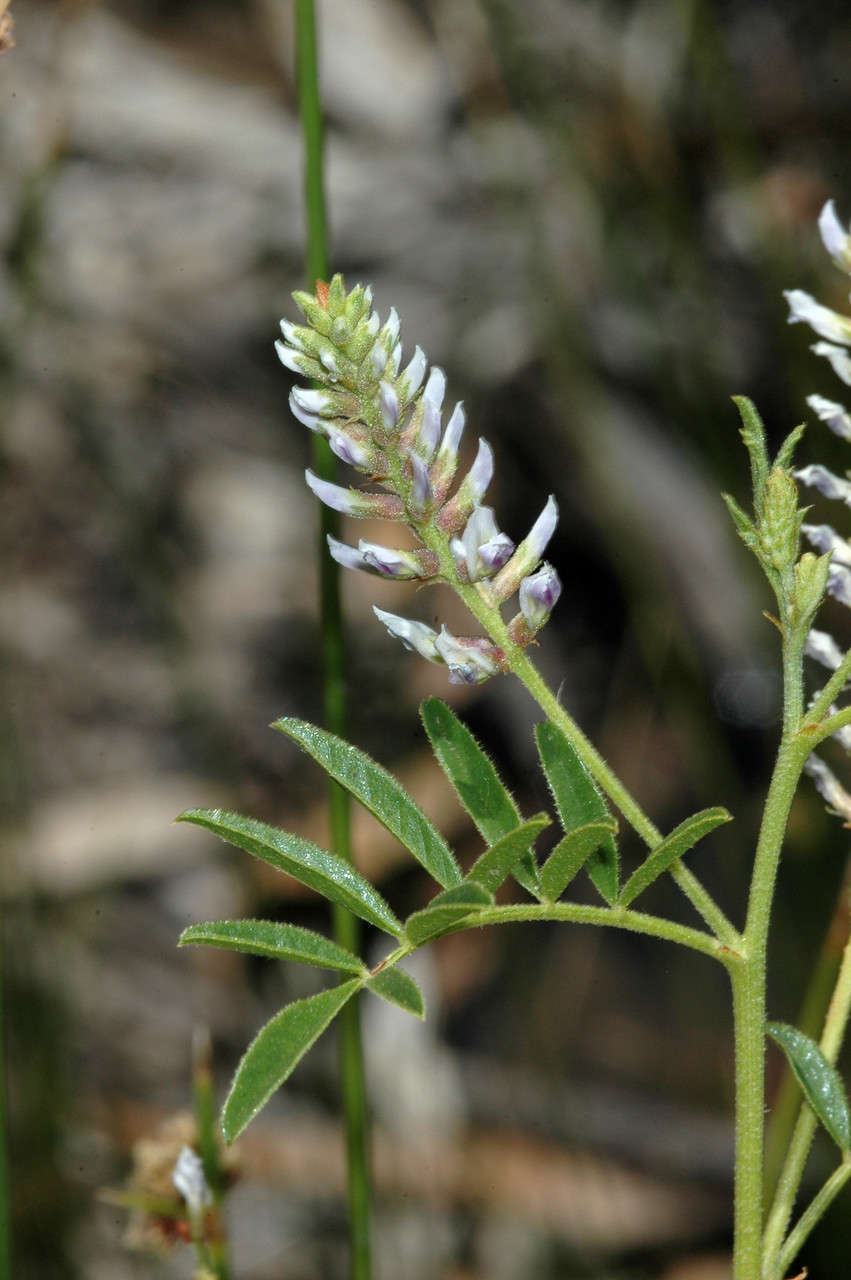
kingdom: Plantae
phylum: Tracheophyta
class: Magnoliopsida
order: Fabales
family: Fabaceae
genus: Glycyrrhiza
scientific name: Glycyrrhiza acanthocarpa
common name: Southern liquorice
